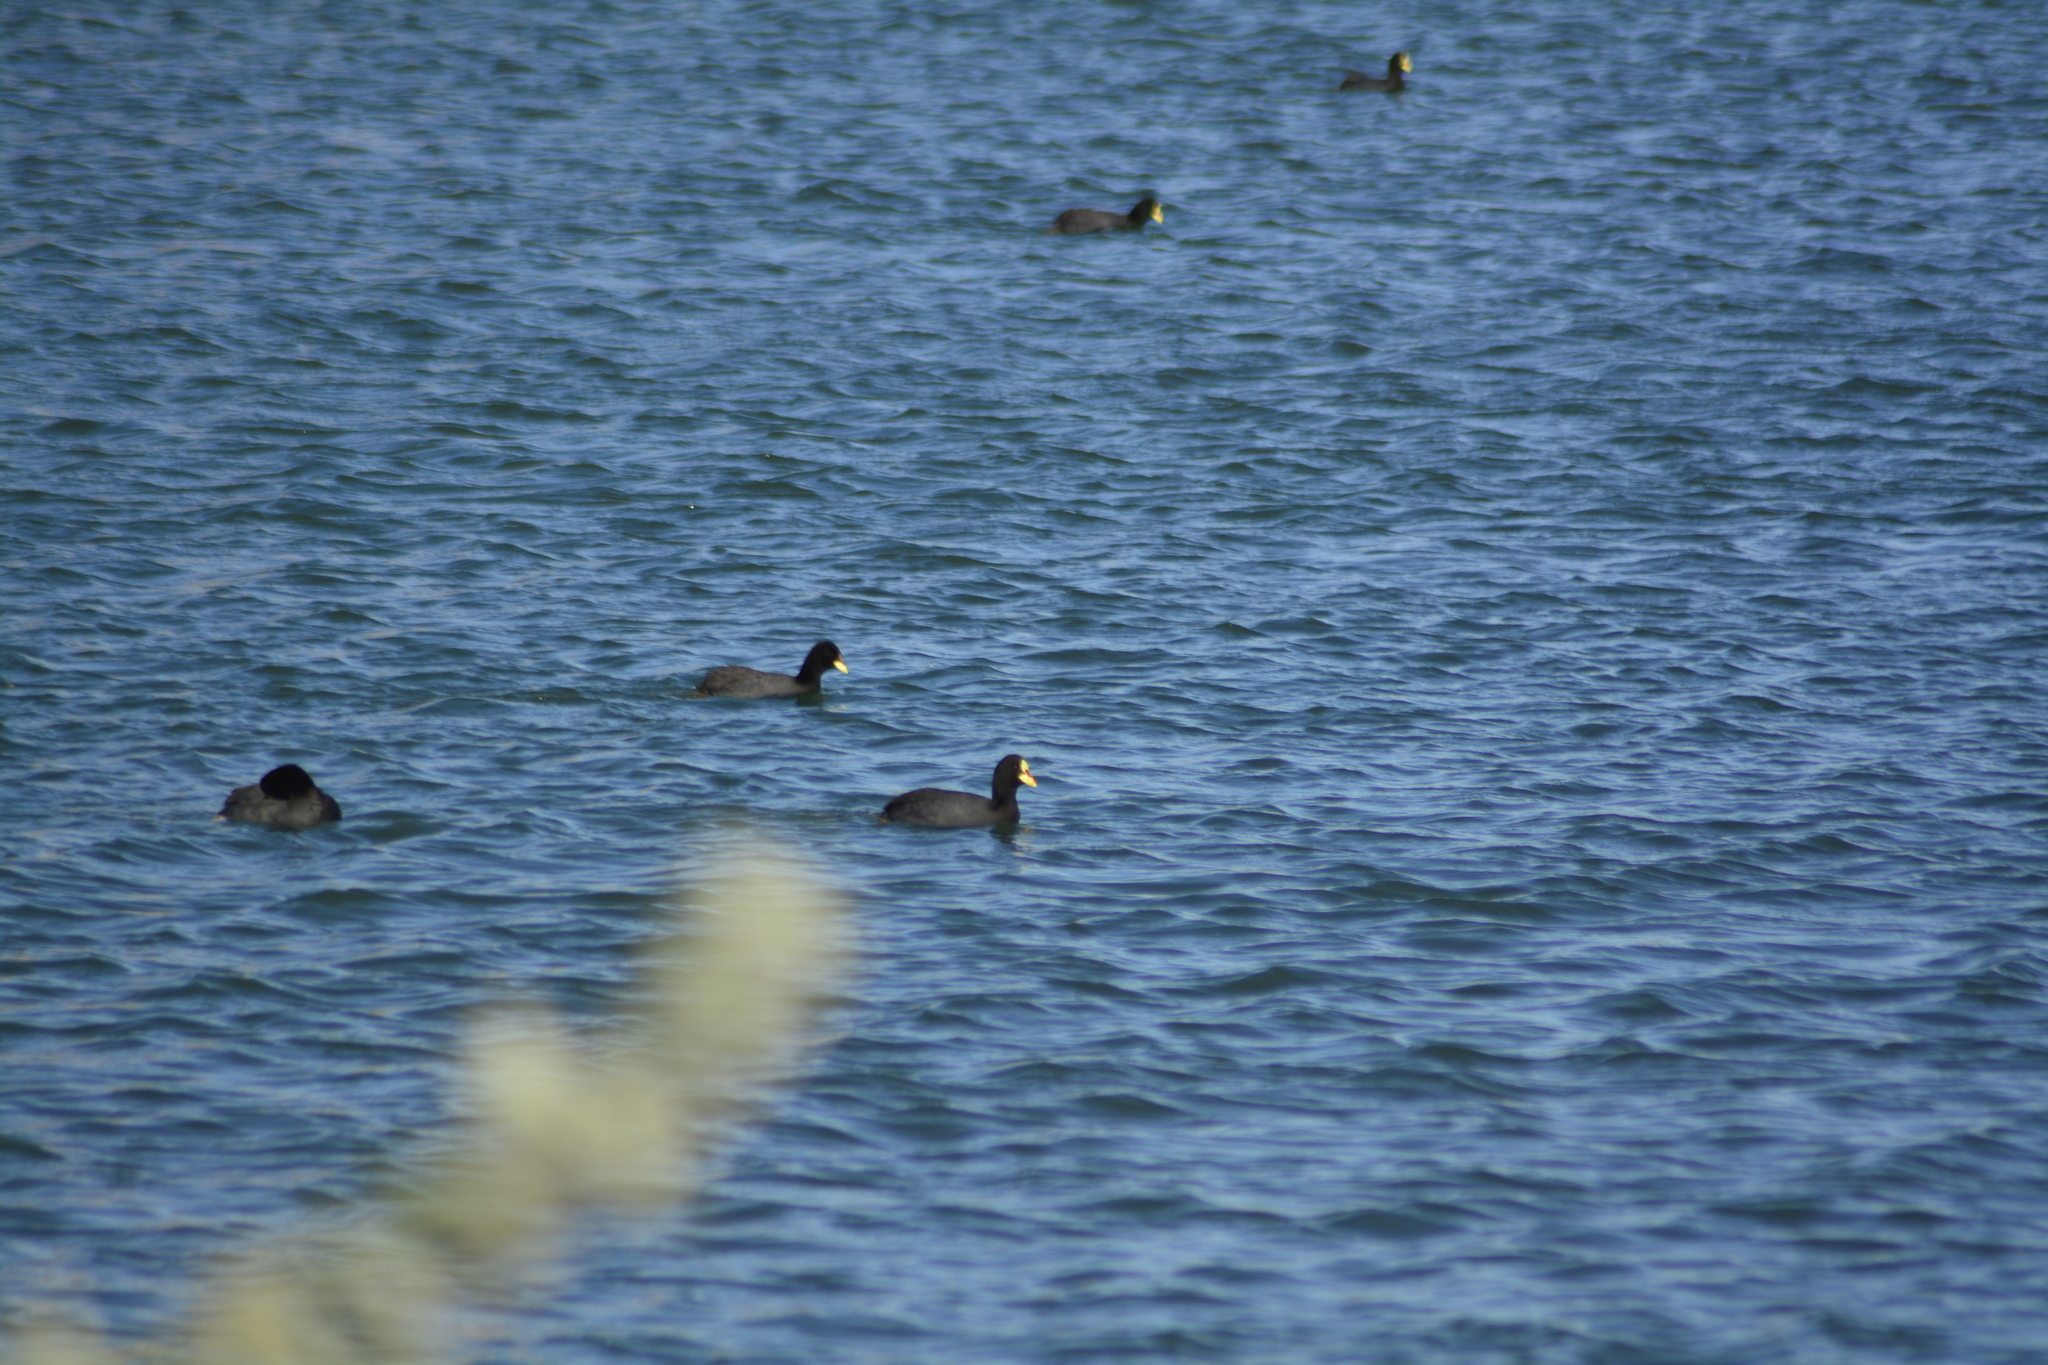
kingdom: Animalia
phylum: Chordata
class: Aves
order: Gruiformes
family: Rallidae
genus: Fulica
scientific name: Fulica armillata
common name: Red-gartered coot
